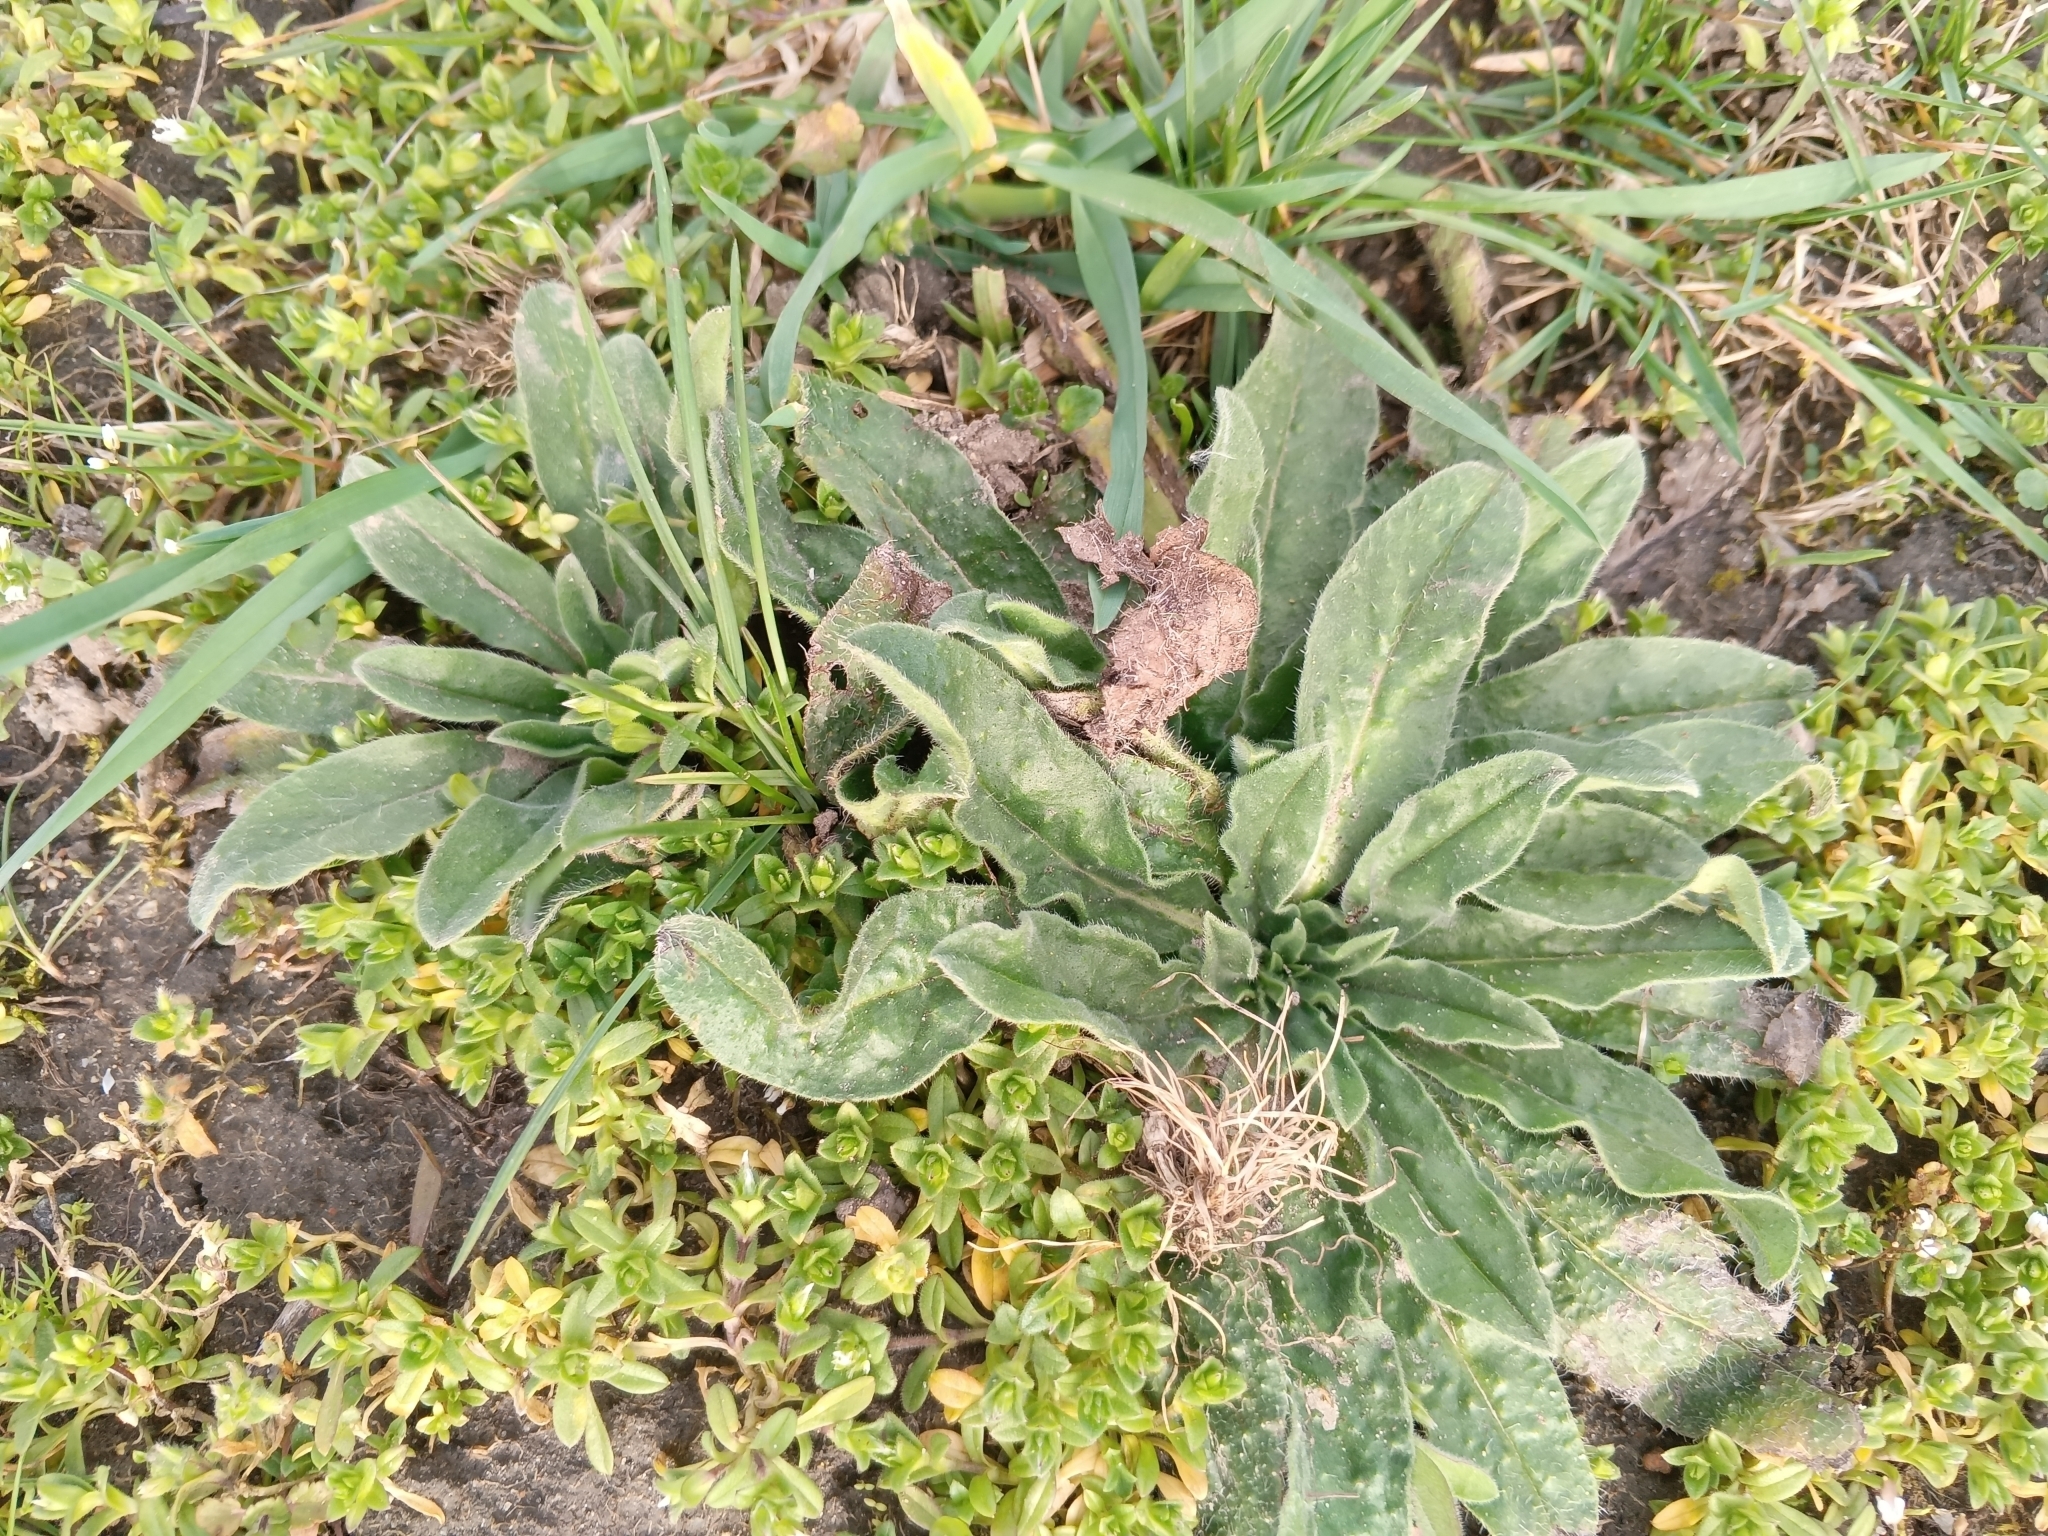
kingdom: Plantae
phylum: Tracheophyta
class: Magnoliopsida
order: Boraginales
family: Boraginaceae
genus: Echium
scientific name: Echium vulgare
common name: Common viper's bugloss
